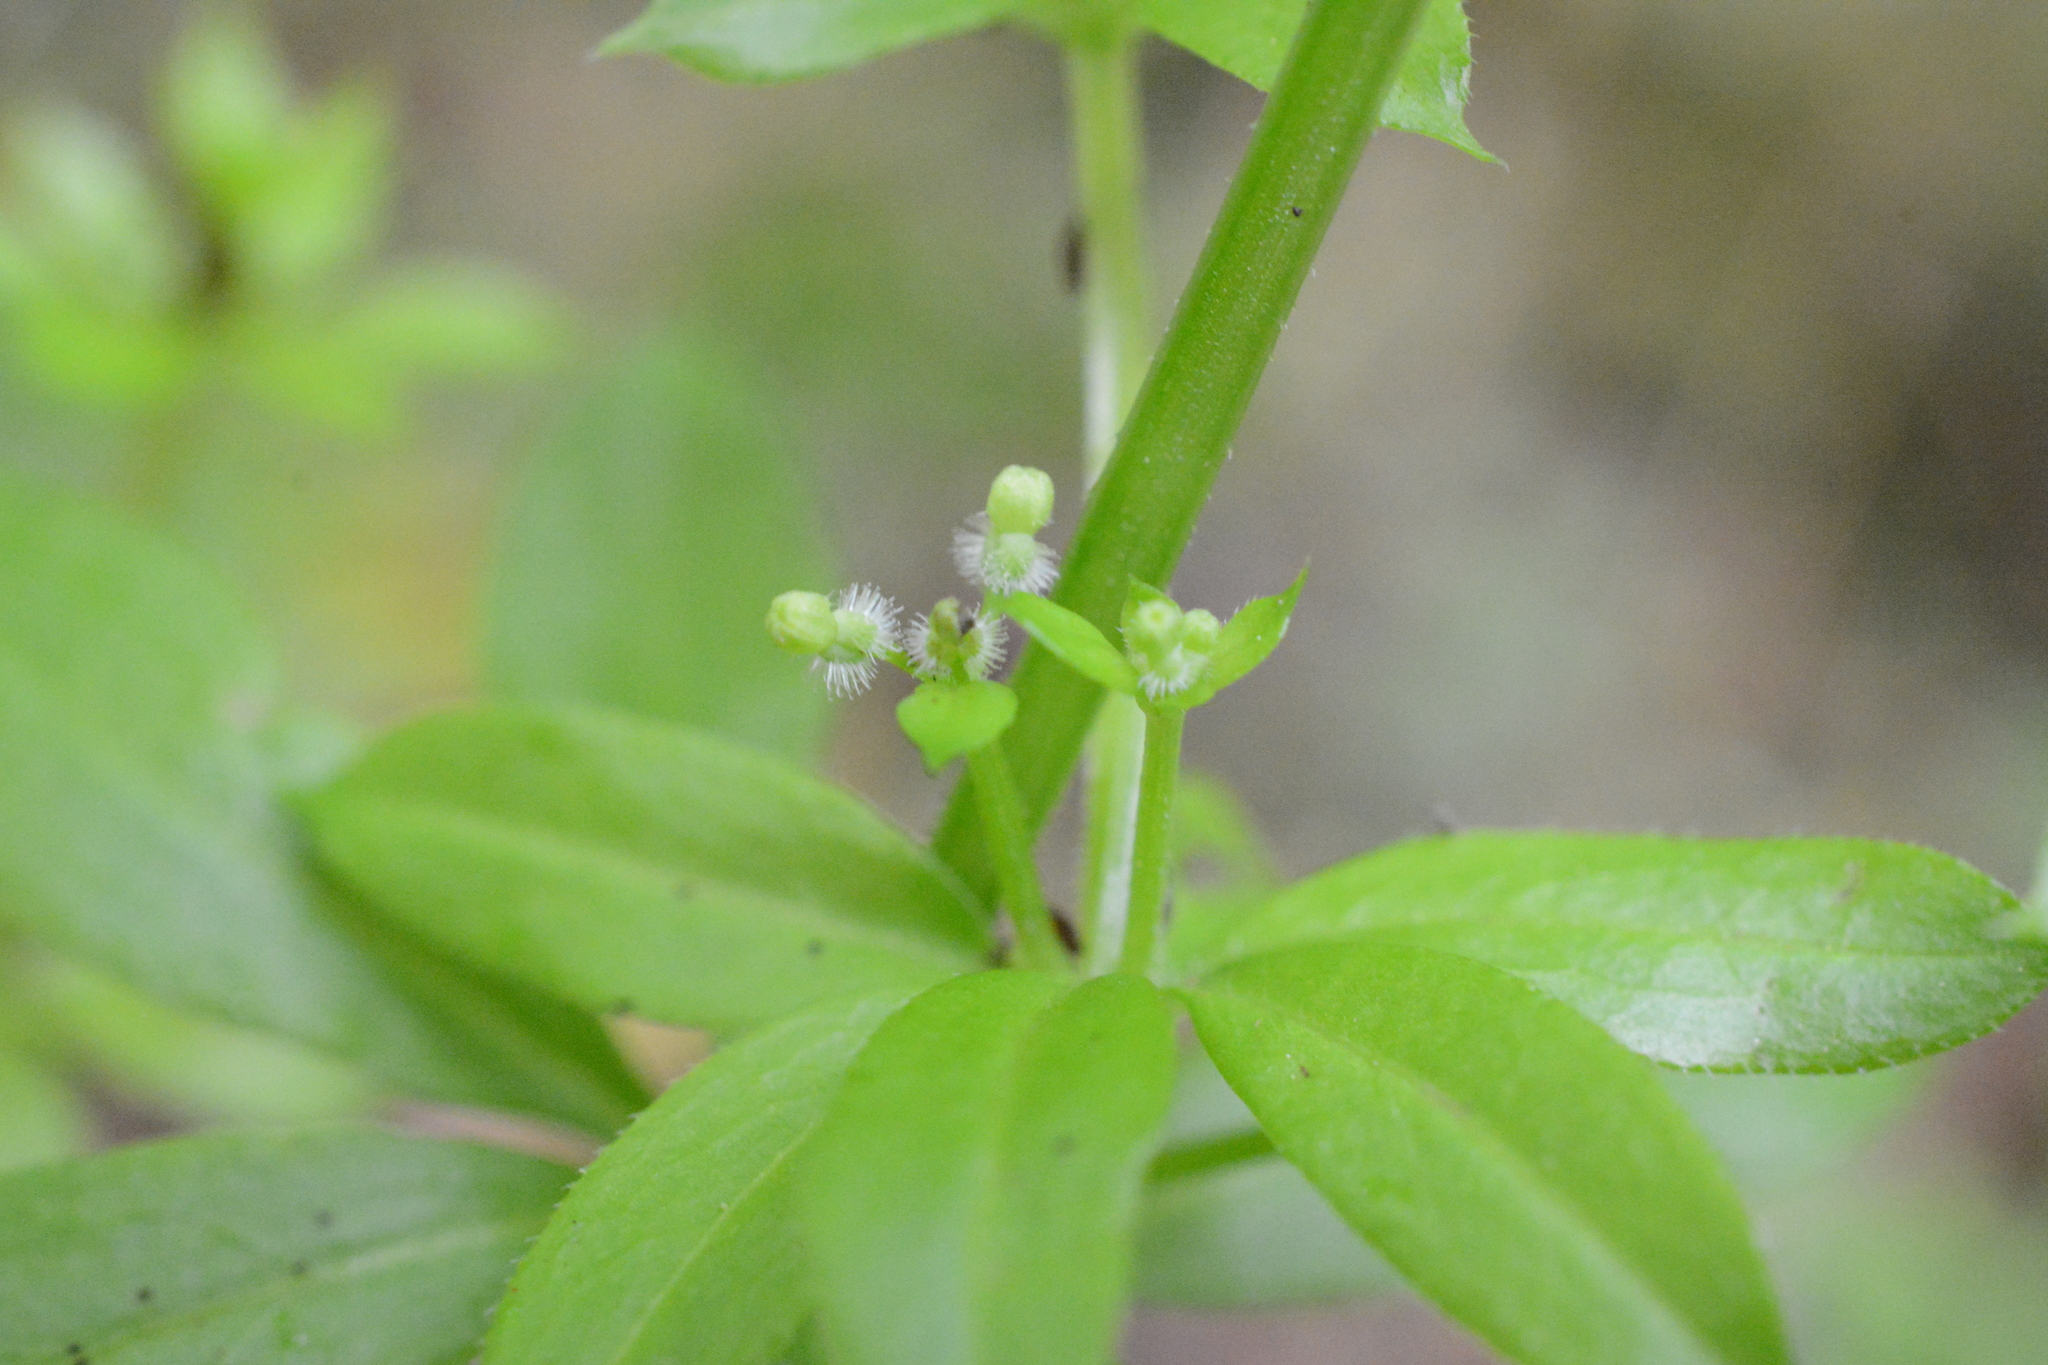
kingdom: Plantae
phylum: Tracheophyta
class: Magnoliopsida
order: Gentianales
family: Rubiaceae
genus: Galium
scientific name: Galium triflorum
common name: Fragrant bedstraw
